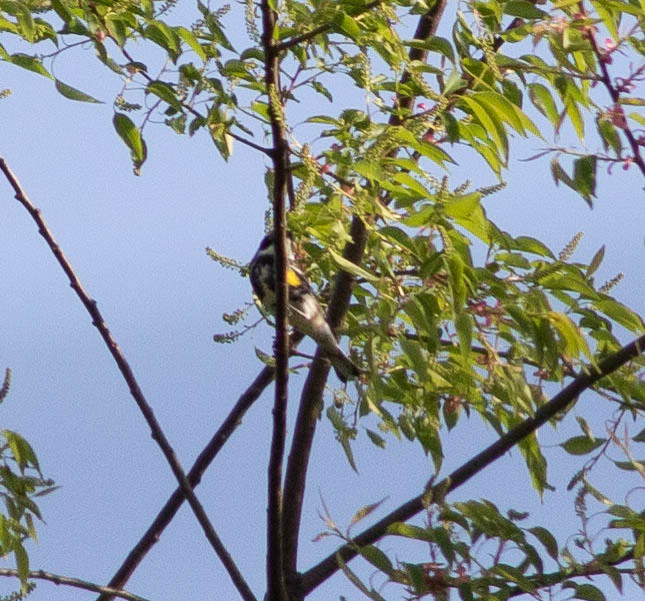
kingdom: Animalia
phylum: Chordata
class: Aves
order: Passeriformes
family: Parulidae
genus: Setophaga
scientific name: Setophaga coronata
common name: Myrtle warbler
